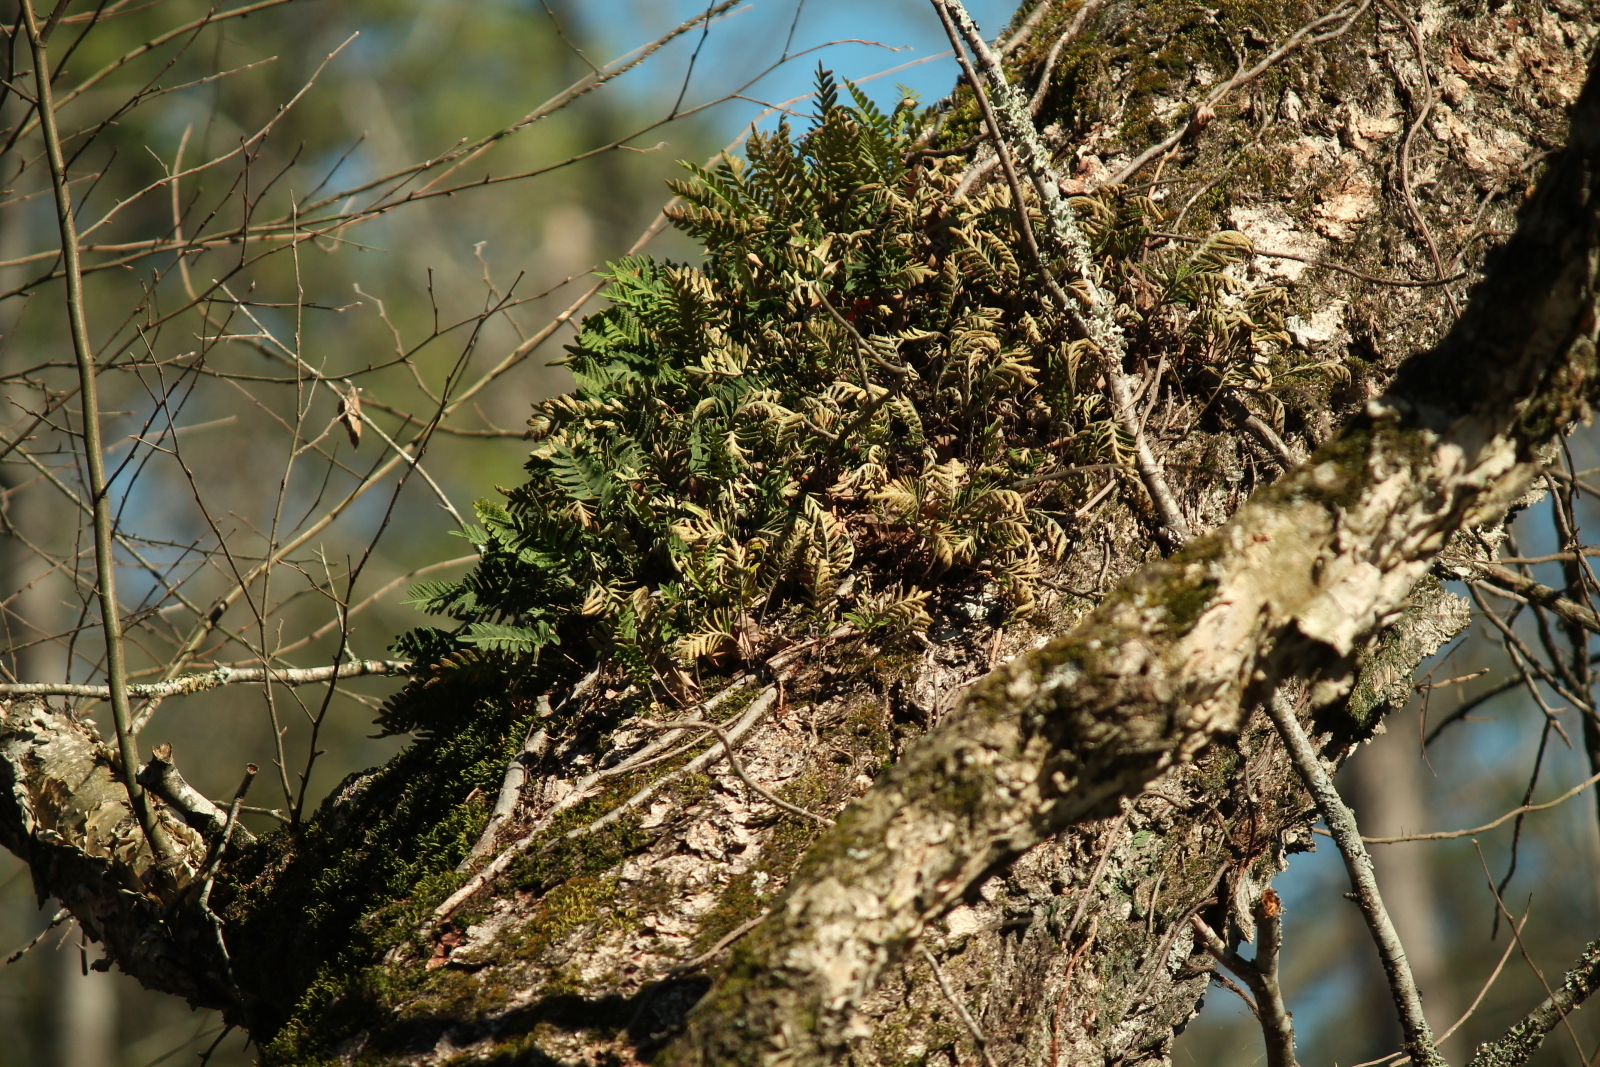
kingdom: Plantae
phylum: Tracheophyta
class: Polypodiopsida
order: Polypodiales
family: Polypodiaceae
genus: Pleopeltis
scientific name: Pleopeltis michauxiana
